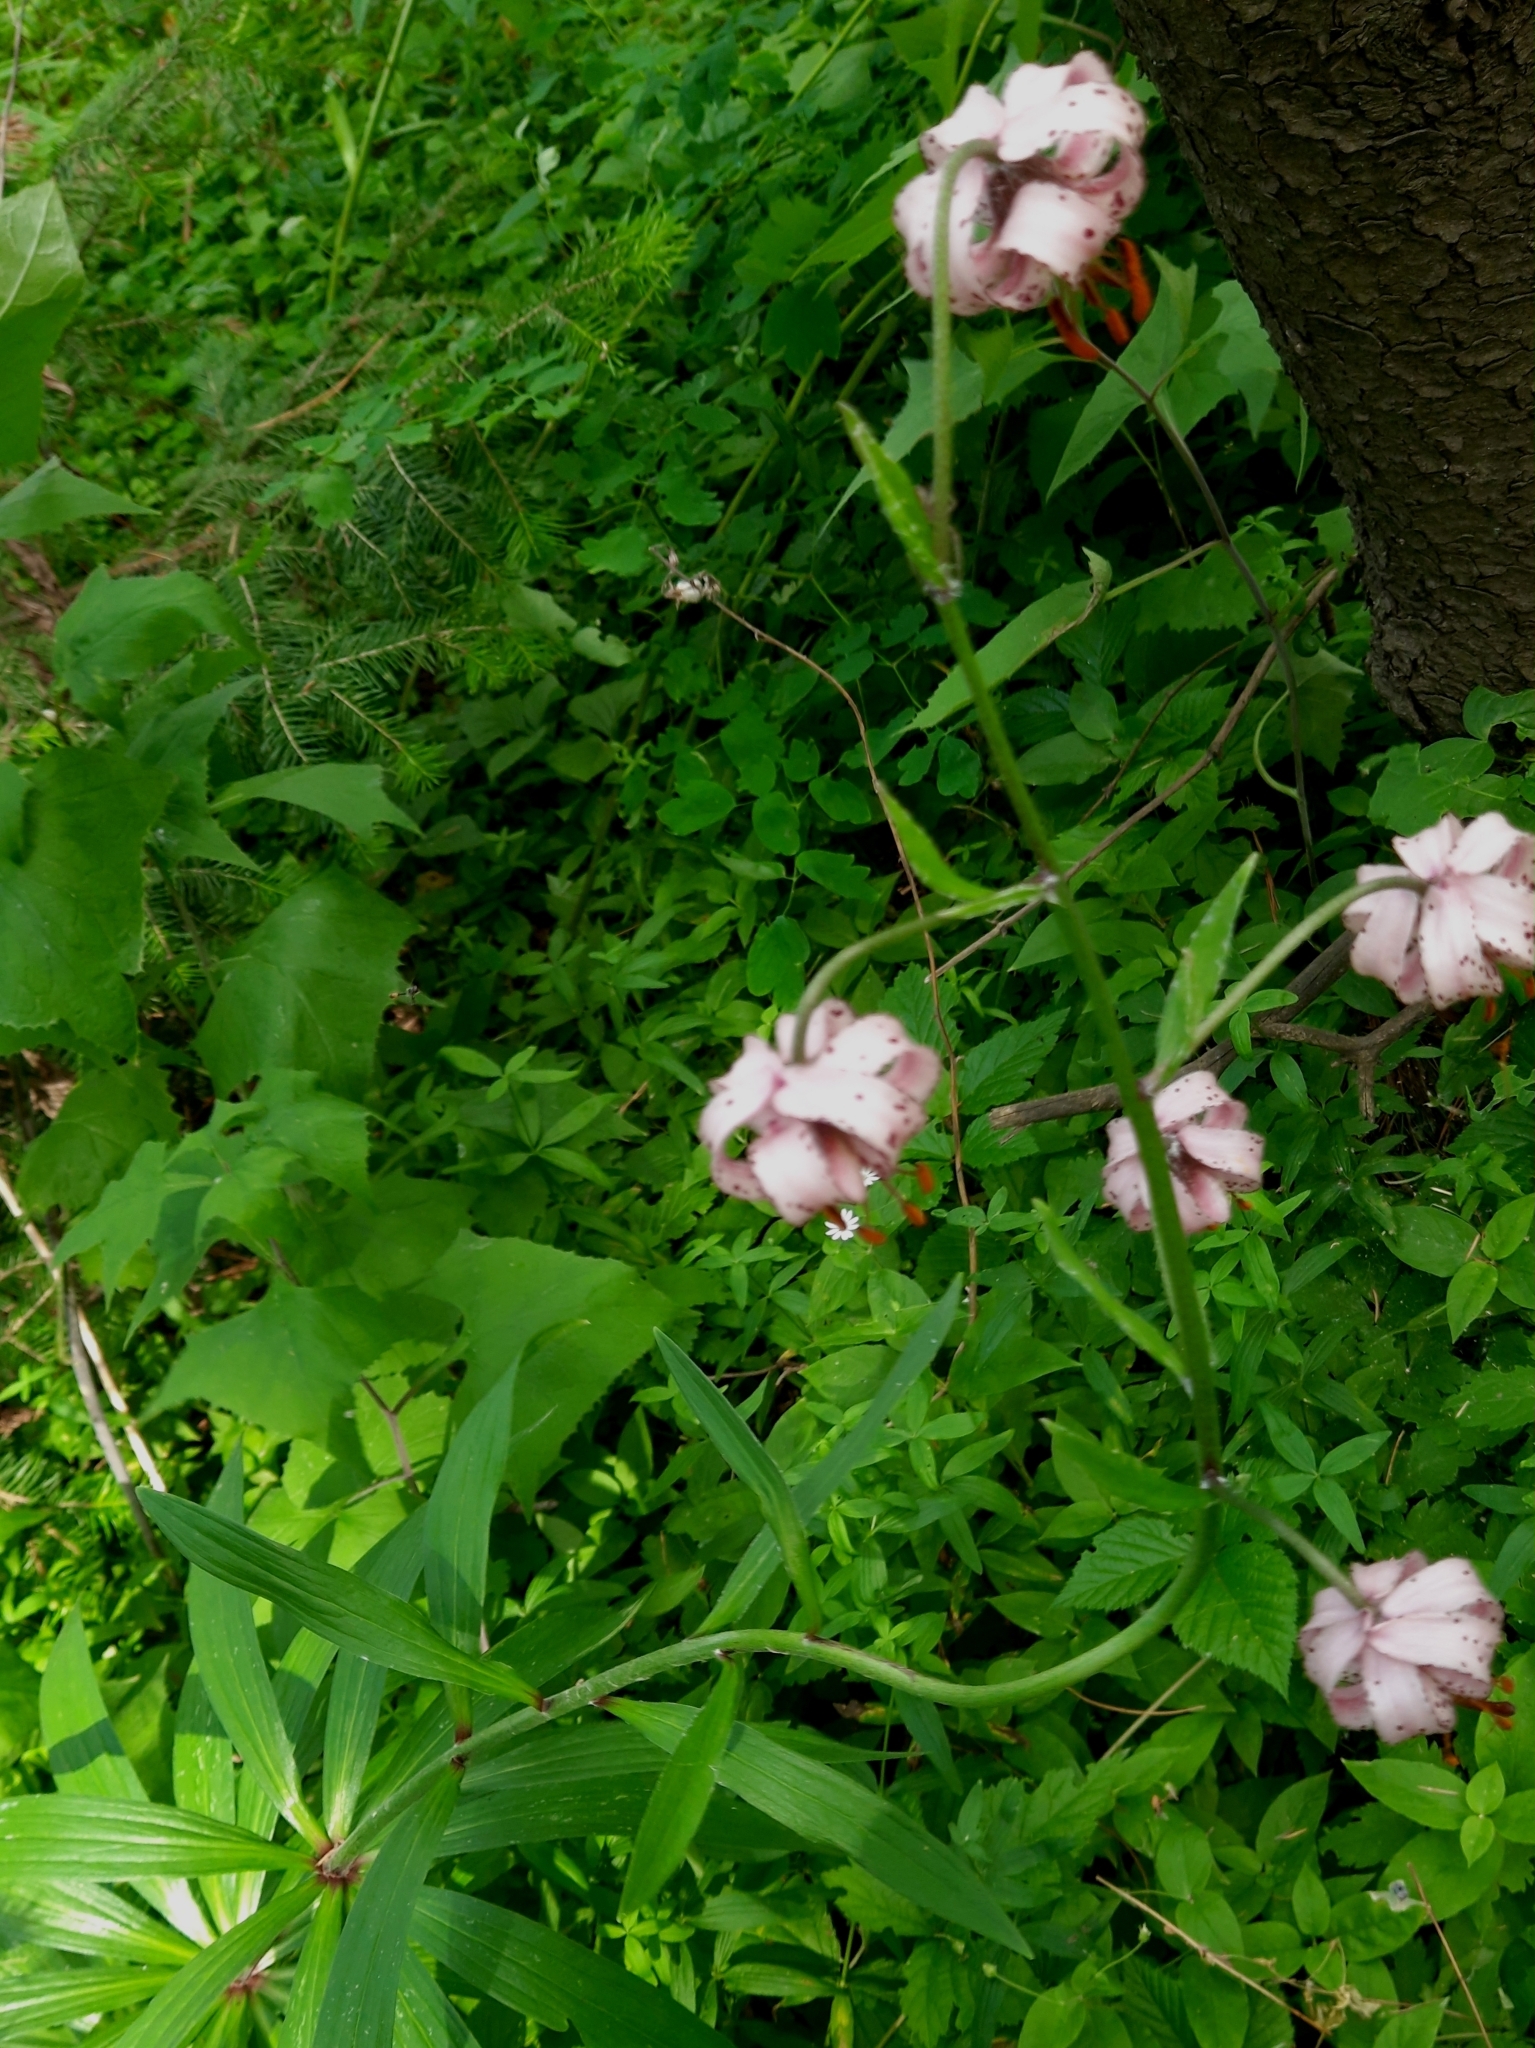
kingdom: Plantae
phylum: Tracheophyta
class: Liliopsida
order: Liliales
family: Liliaceae
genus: Lilium
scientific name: Lilium martagon
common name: Martagon lily
